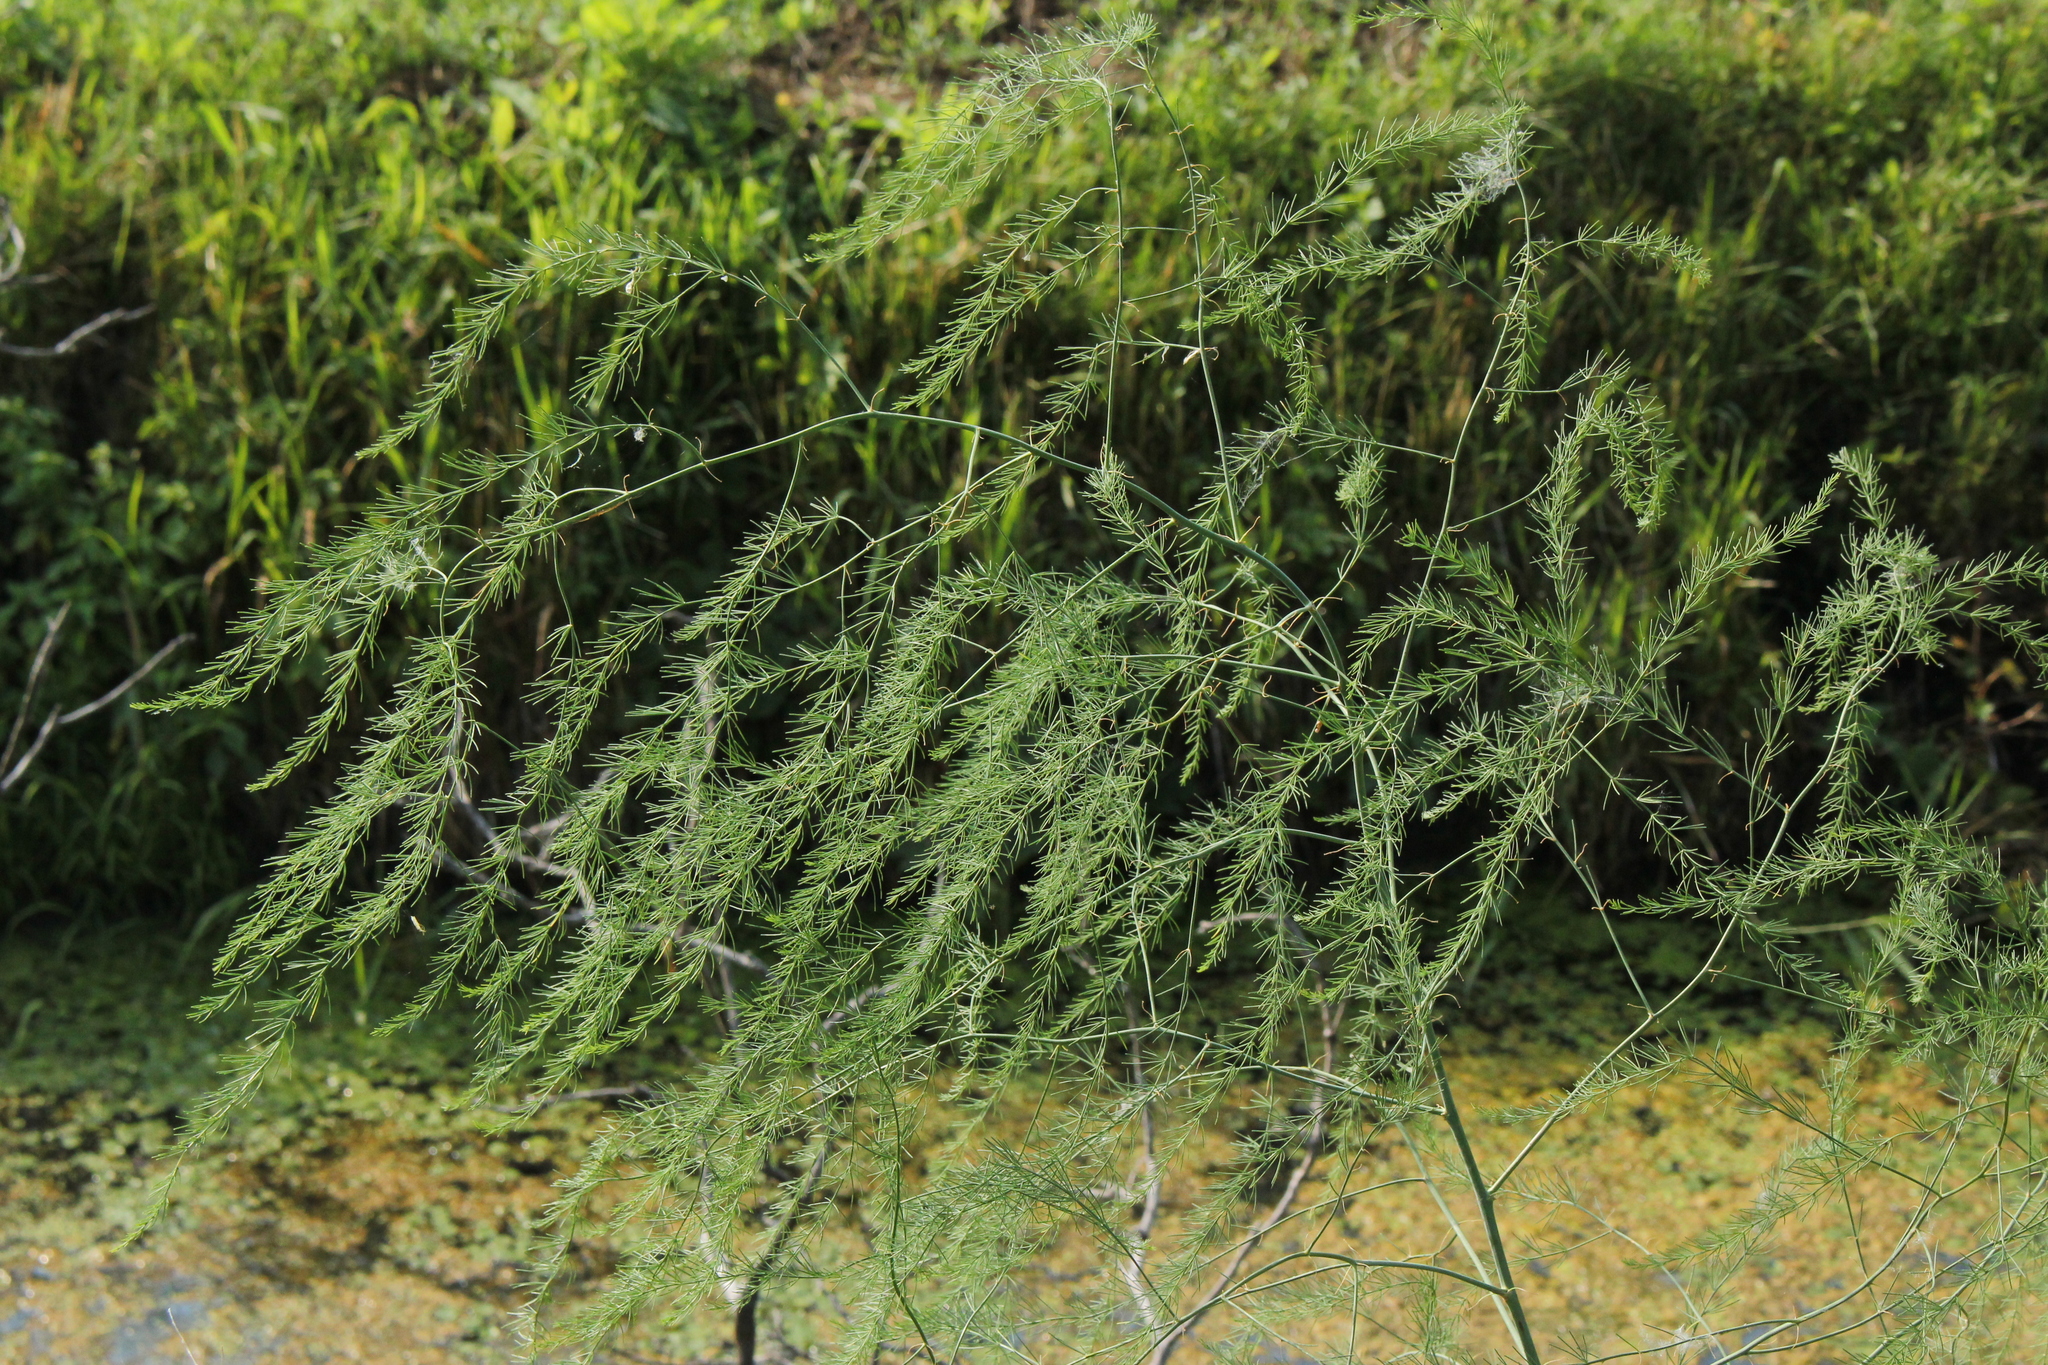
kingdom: Plantae
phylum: Tracheophyta
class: Liliopsida
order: Asparagales
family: Asparagaceae
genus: Asparagus
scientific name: Asparagus officinalis
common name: Garden asparagus
